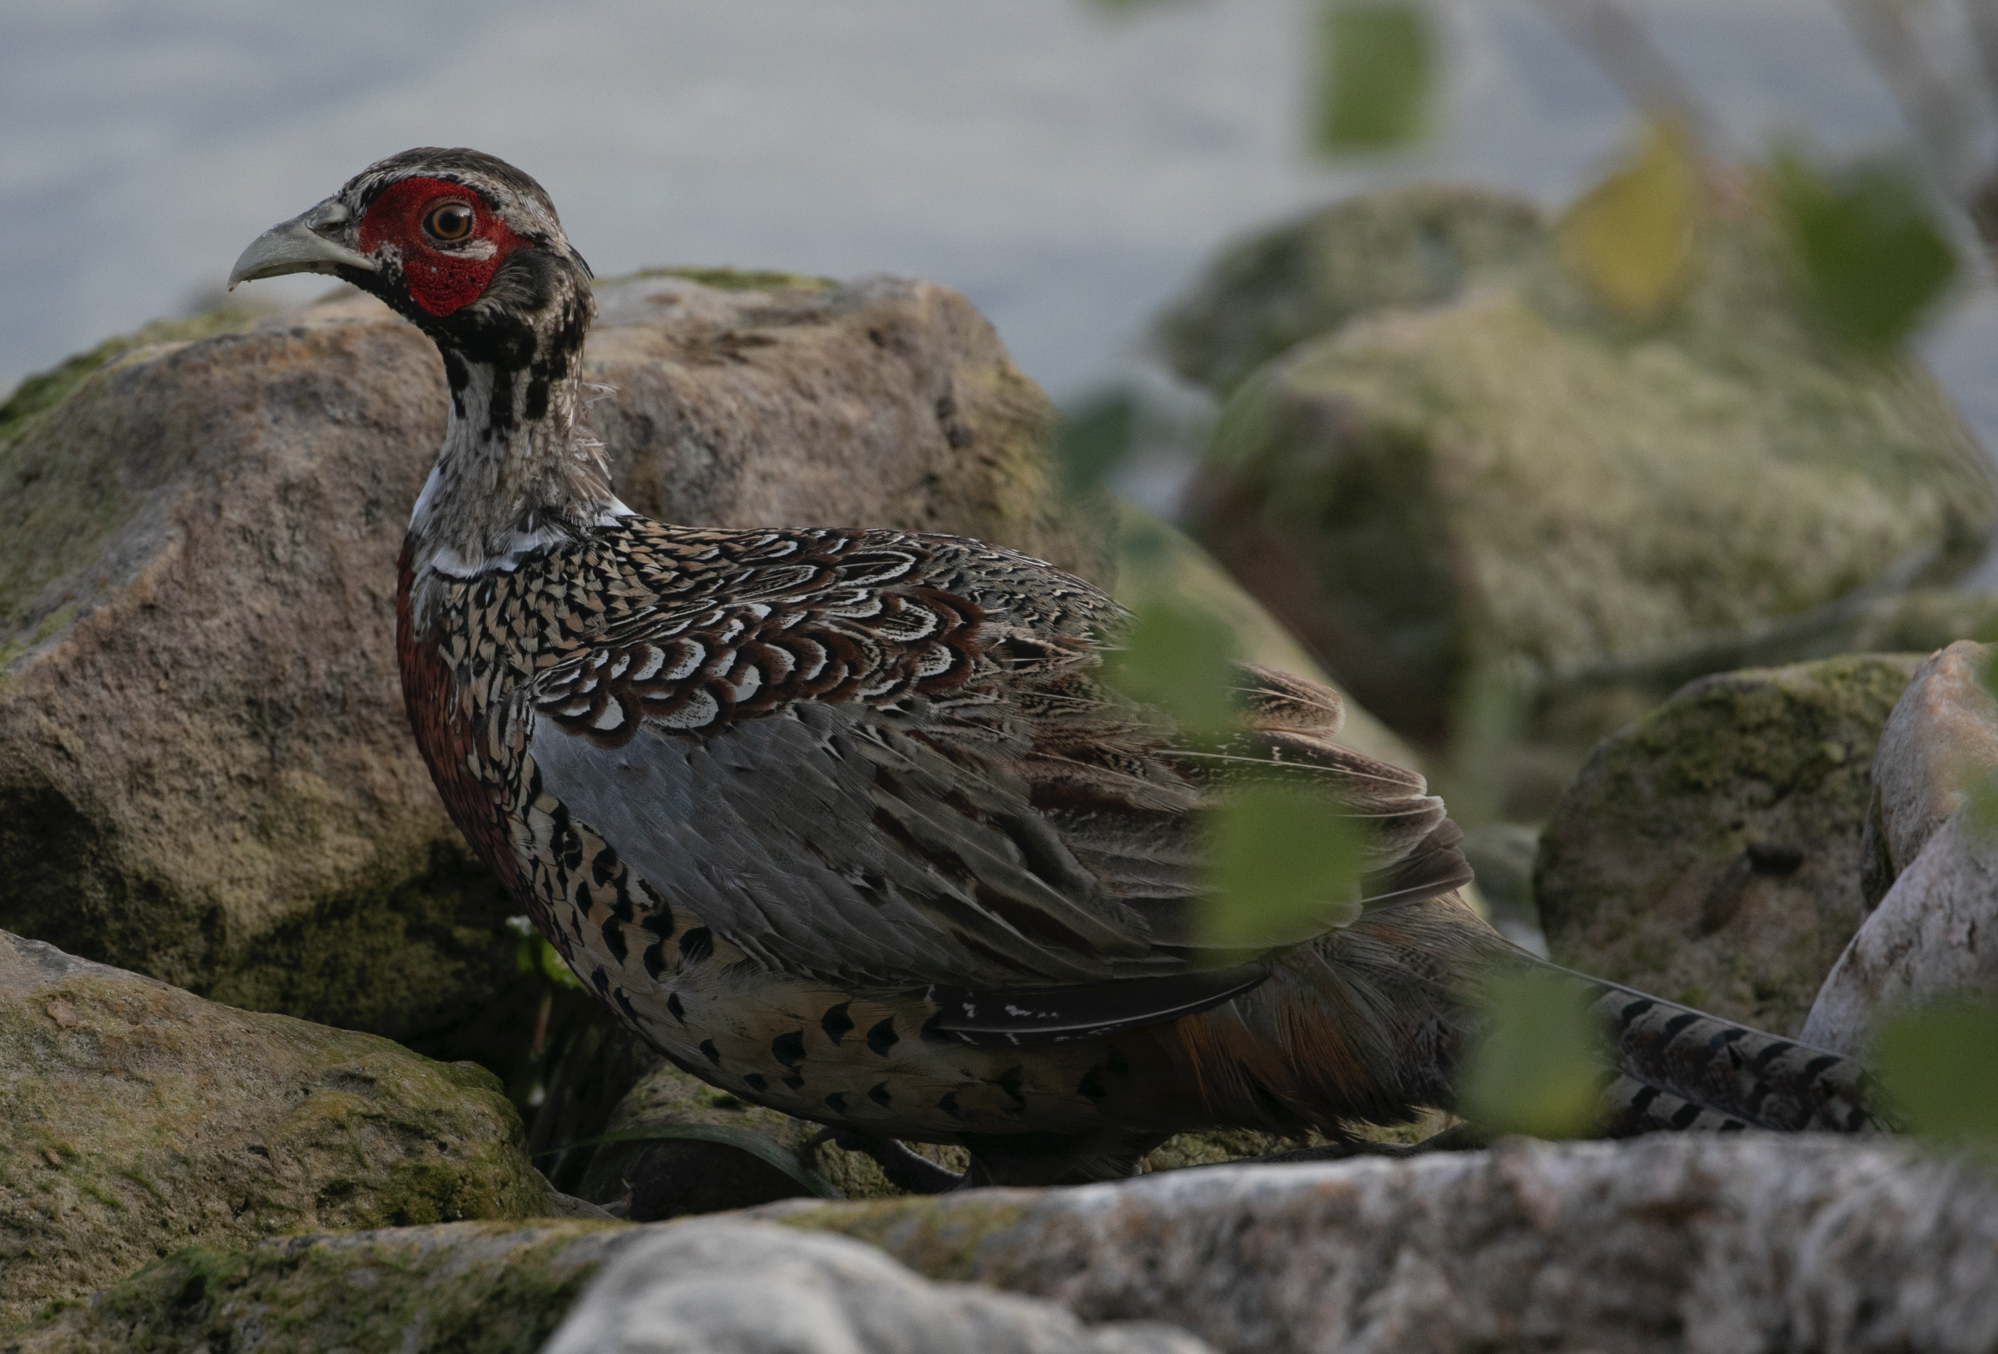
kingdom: Animalia
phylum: Chordata
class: Aves
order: Galliformes
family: Phasianidae
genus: Phasianus
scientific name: Phasianus colchicus
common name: Common pheasant
